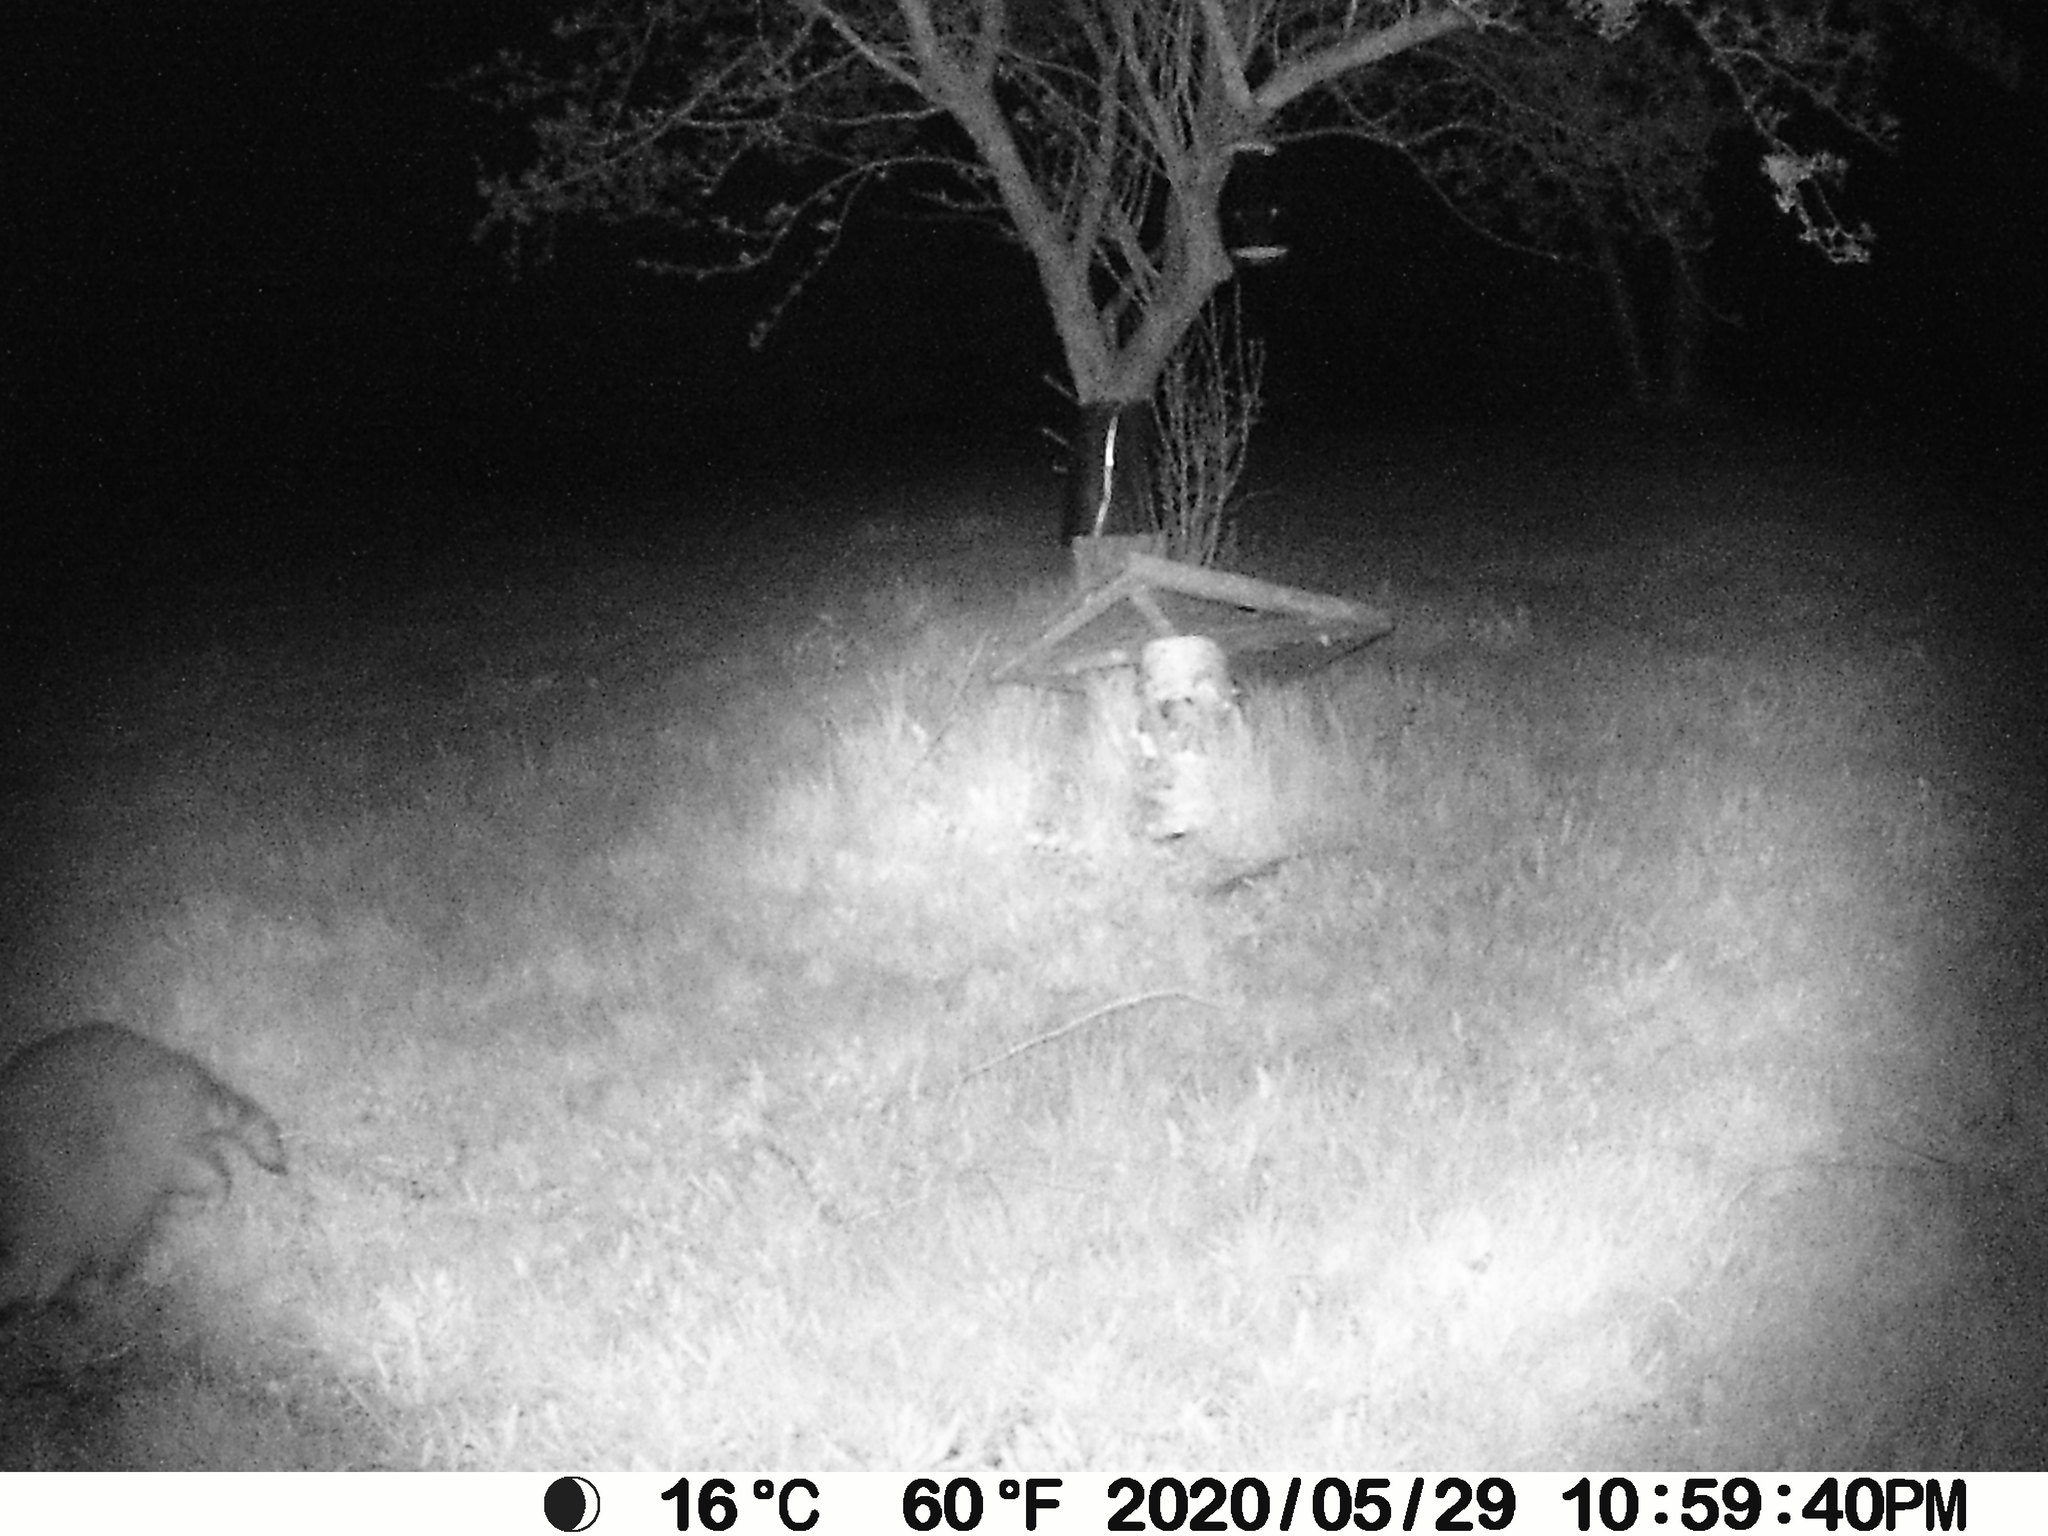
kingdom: Animalia
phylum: Chordata
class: Mammalia
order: Carnivora
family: Procyonidae
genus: Procyon
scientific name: Procyon lotor
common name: Raccoon
